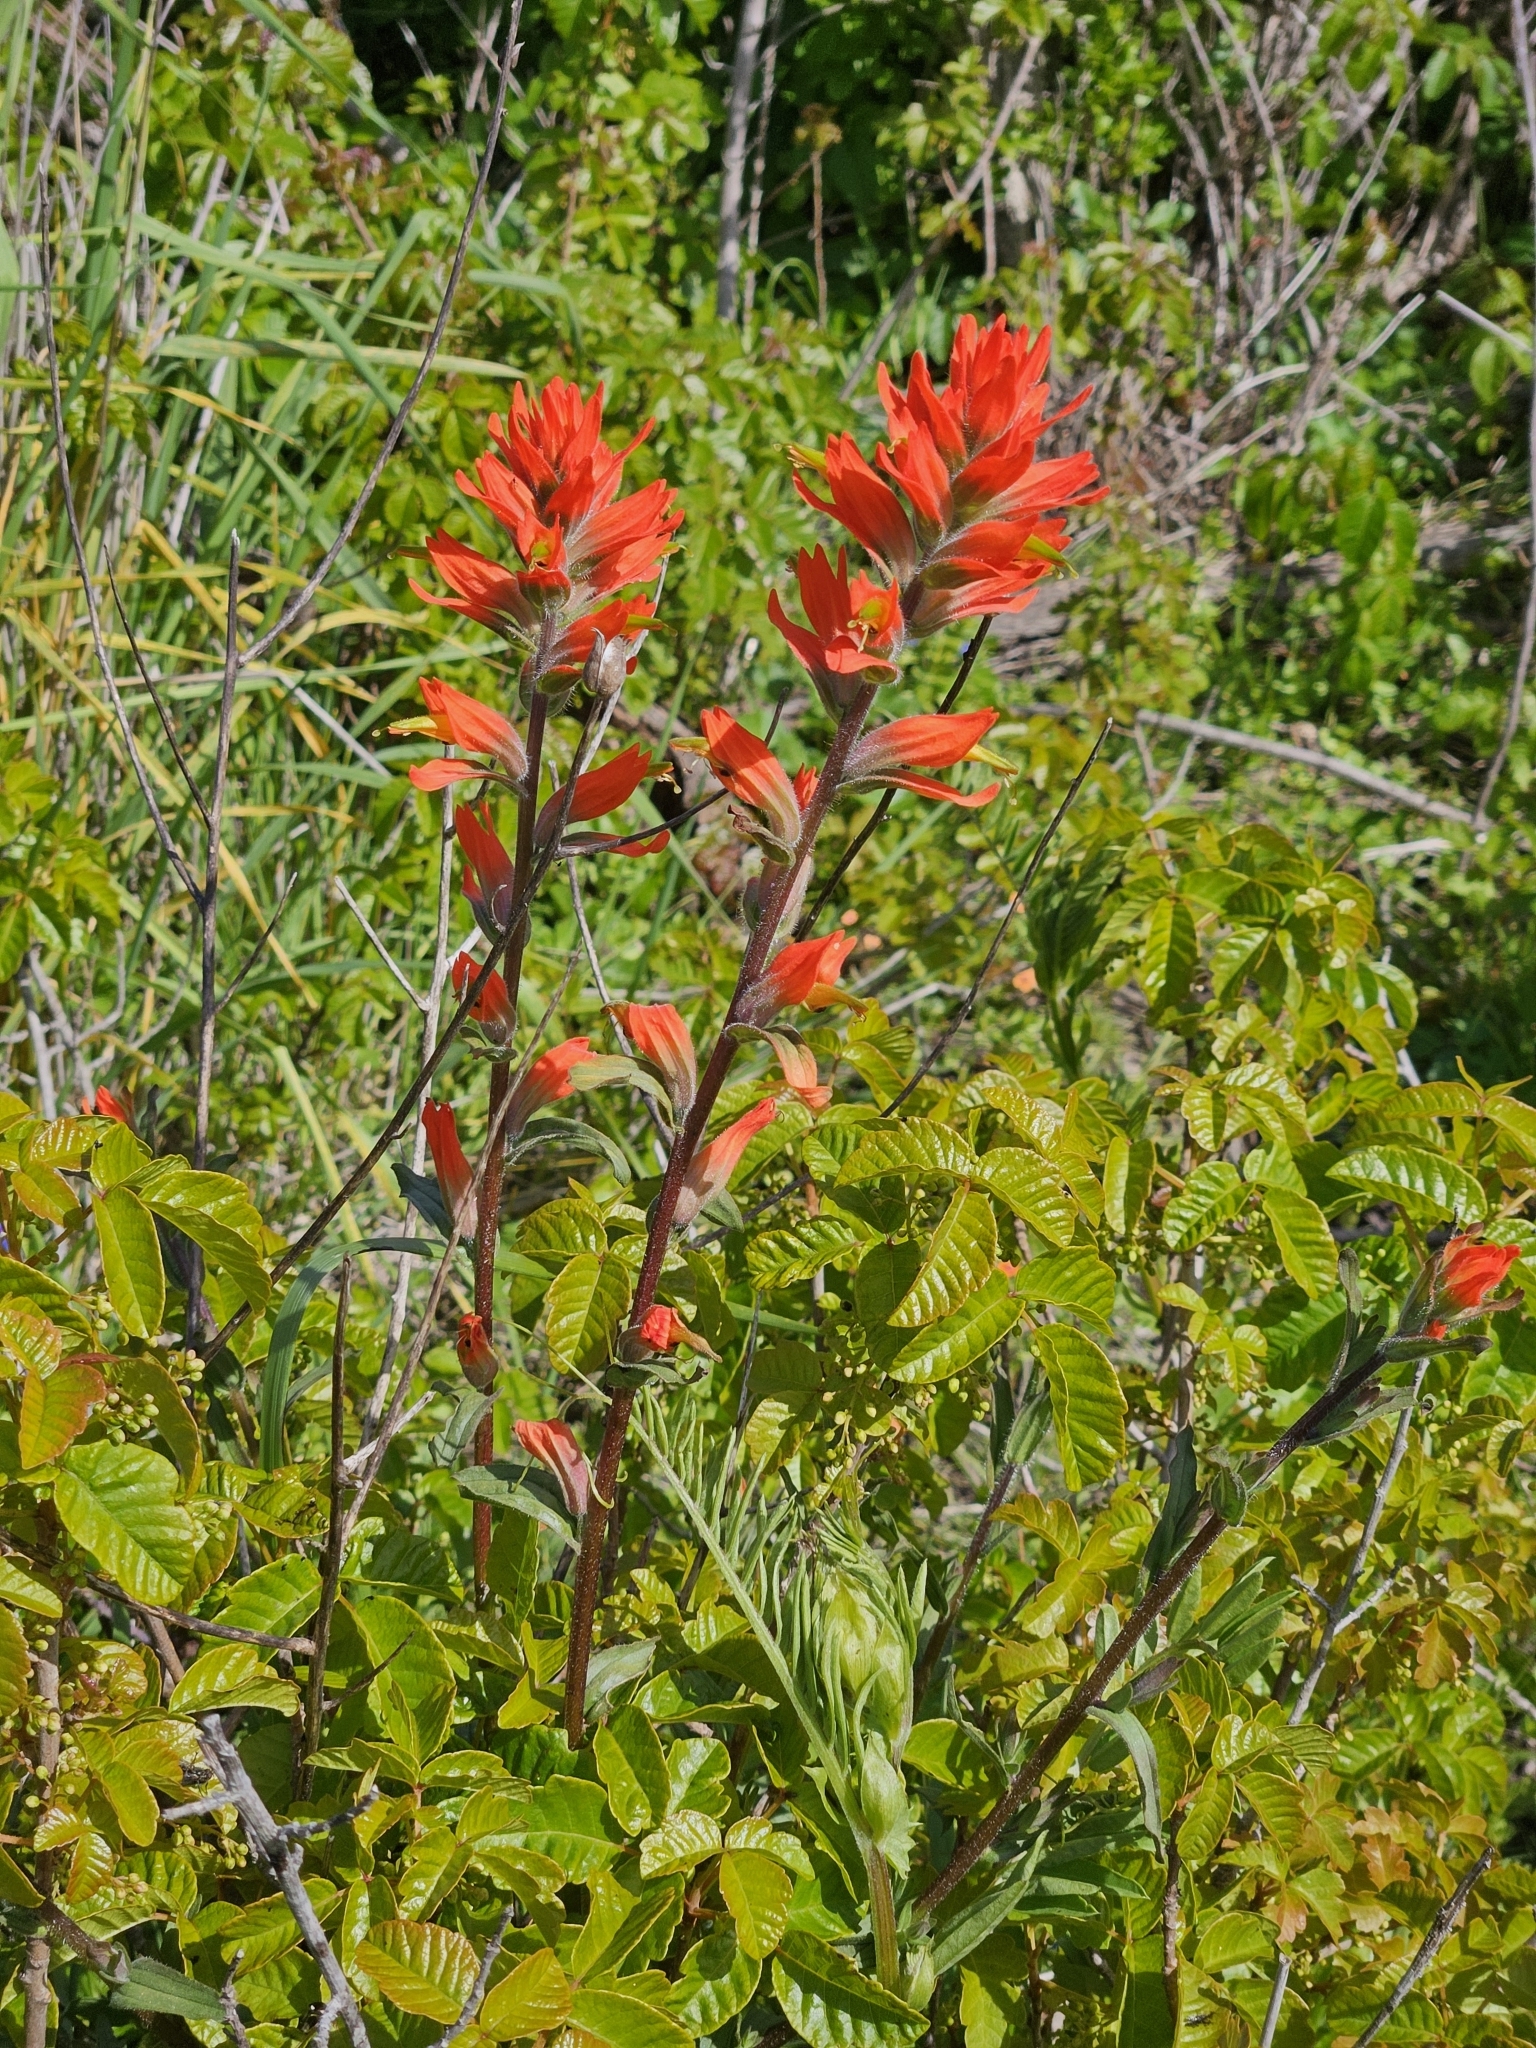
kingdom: Plantae
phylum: Tracheophyta
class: Magnoliopsida
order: Lamiales
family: Orobanchaceae
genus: Castilleja
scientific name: Castilleja subinclusa
